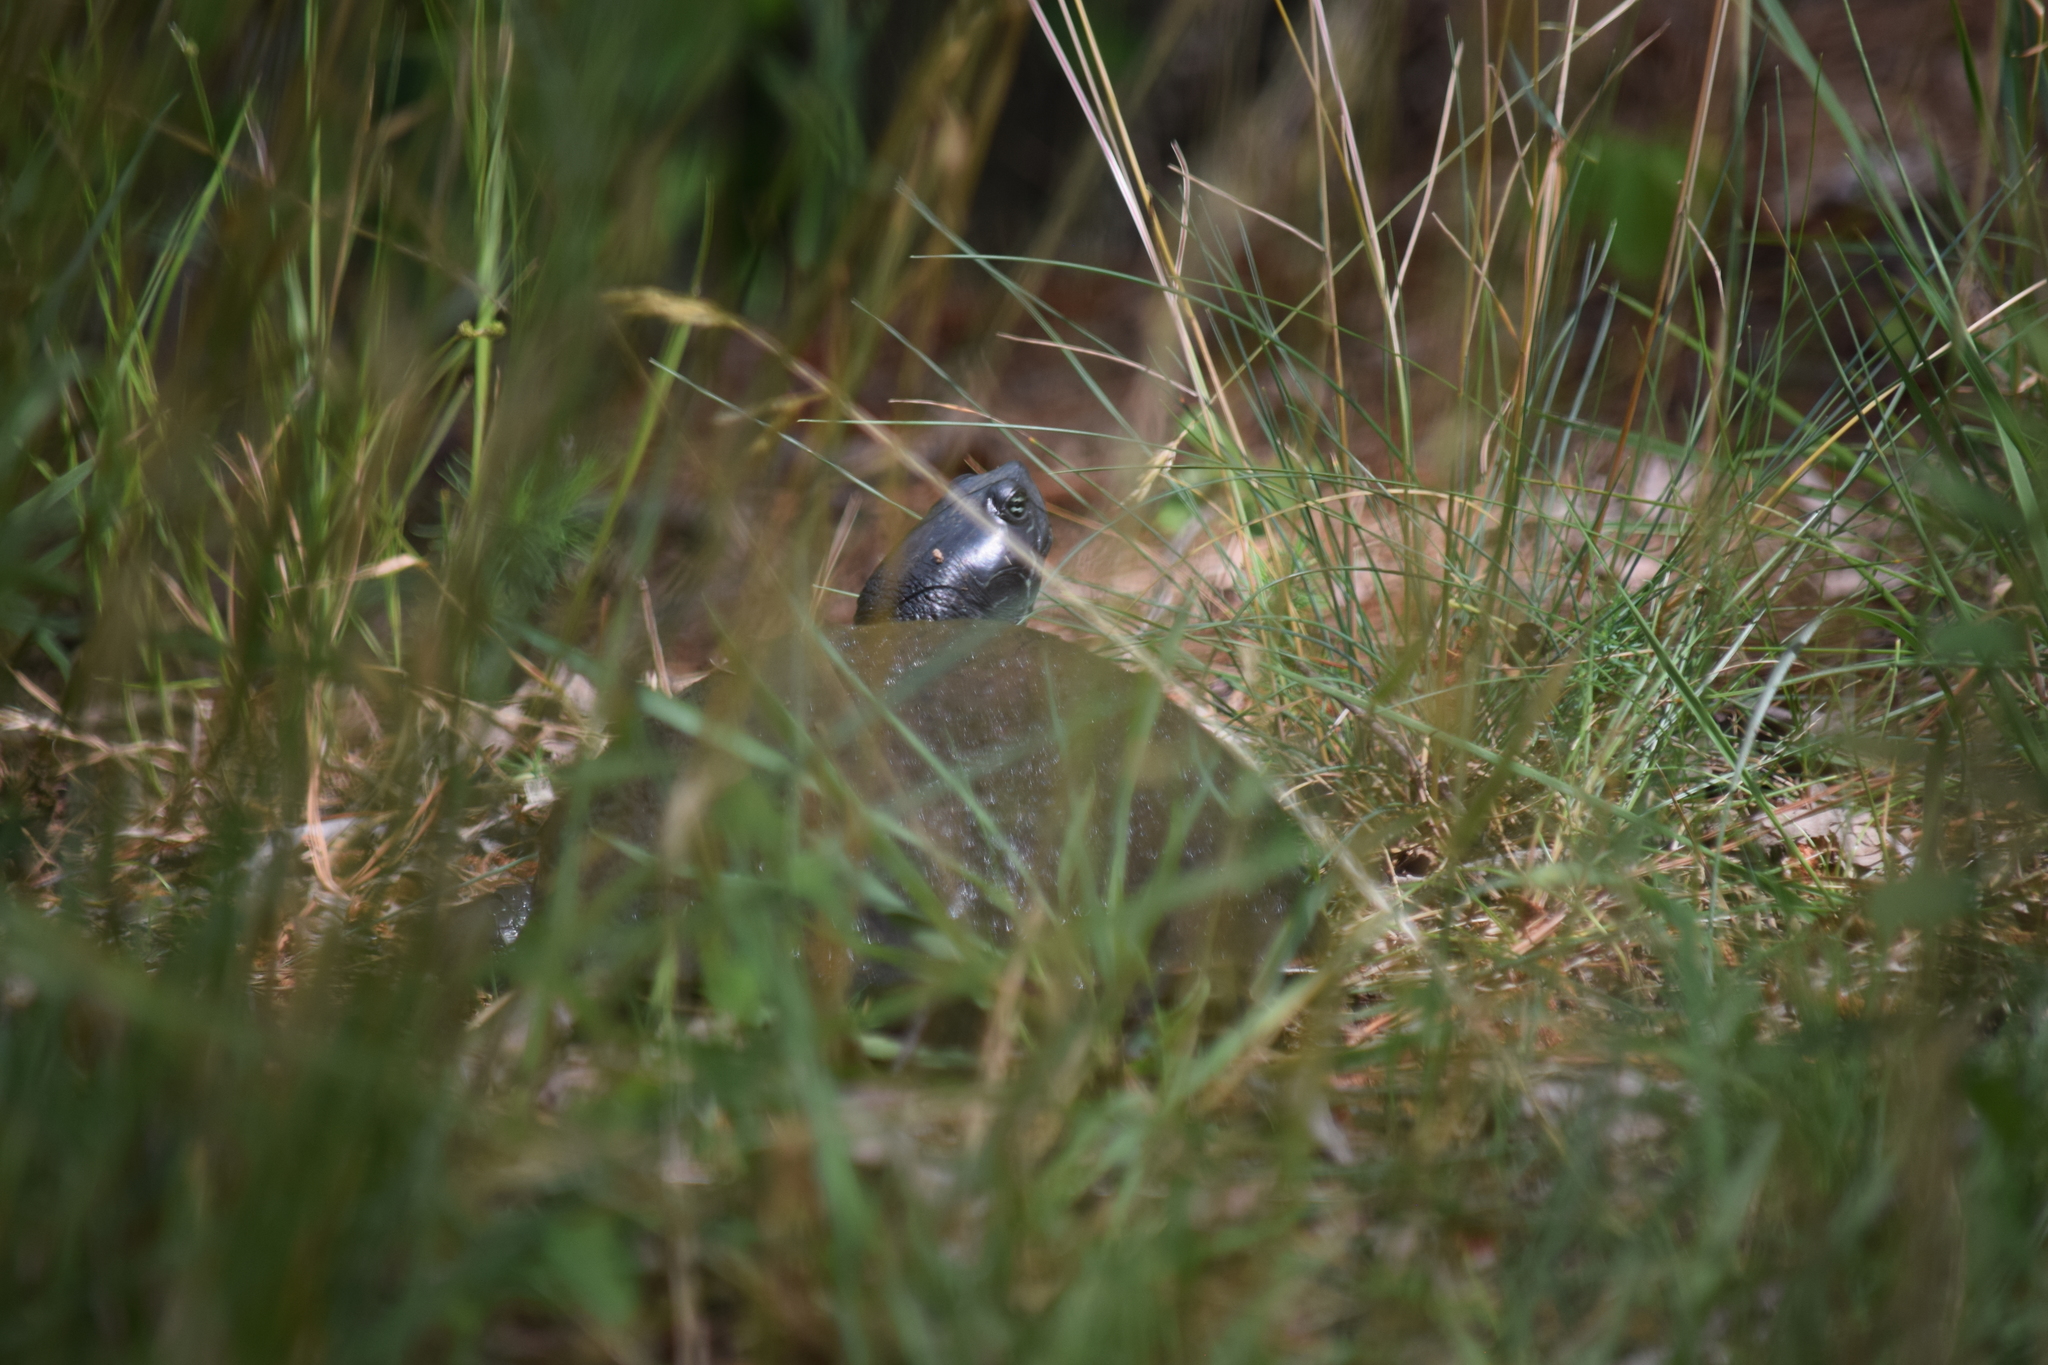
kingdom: Animalia
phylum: Chordata
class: Testudines
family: Emydidae
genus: Pseudemys
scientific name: Pseudemys rubriventris
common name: American red-bellied turtle
